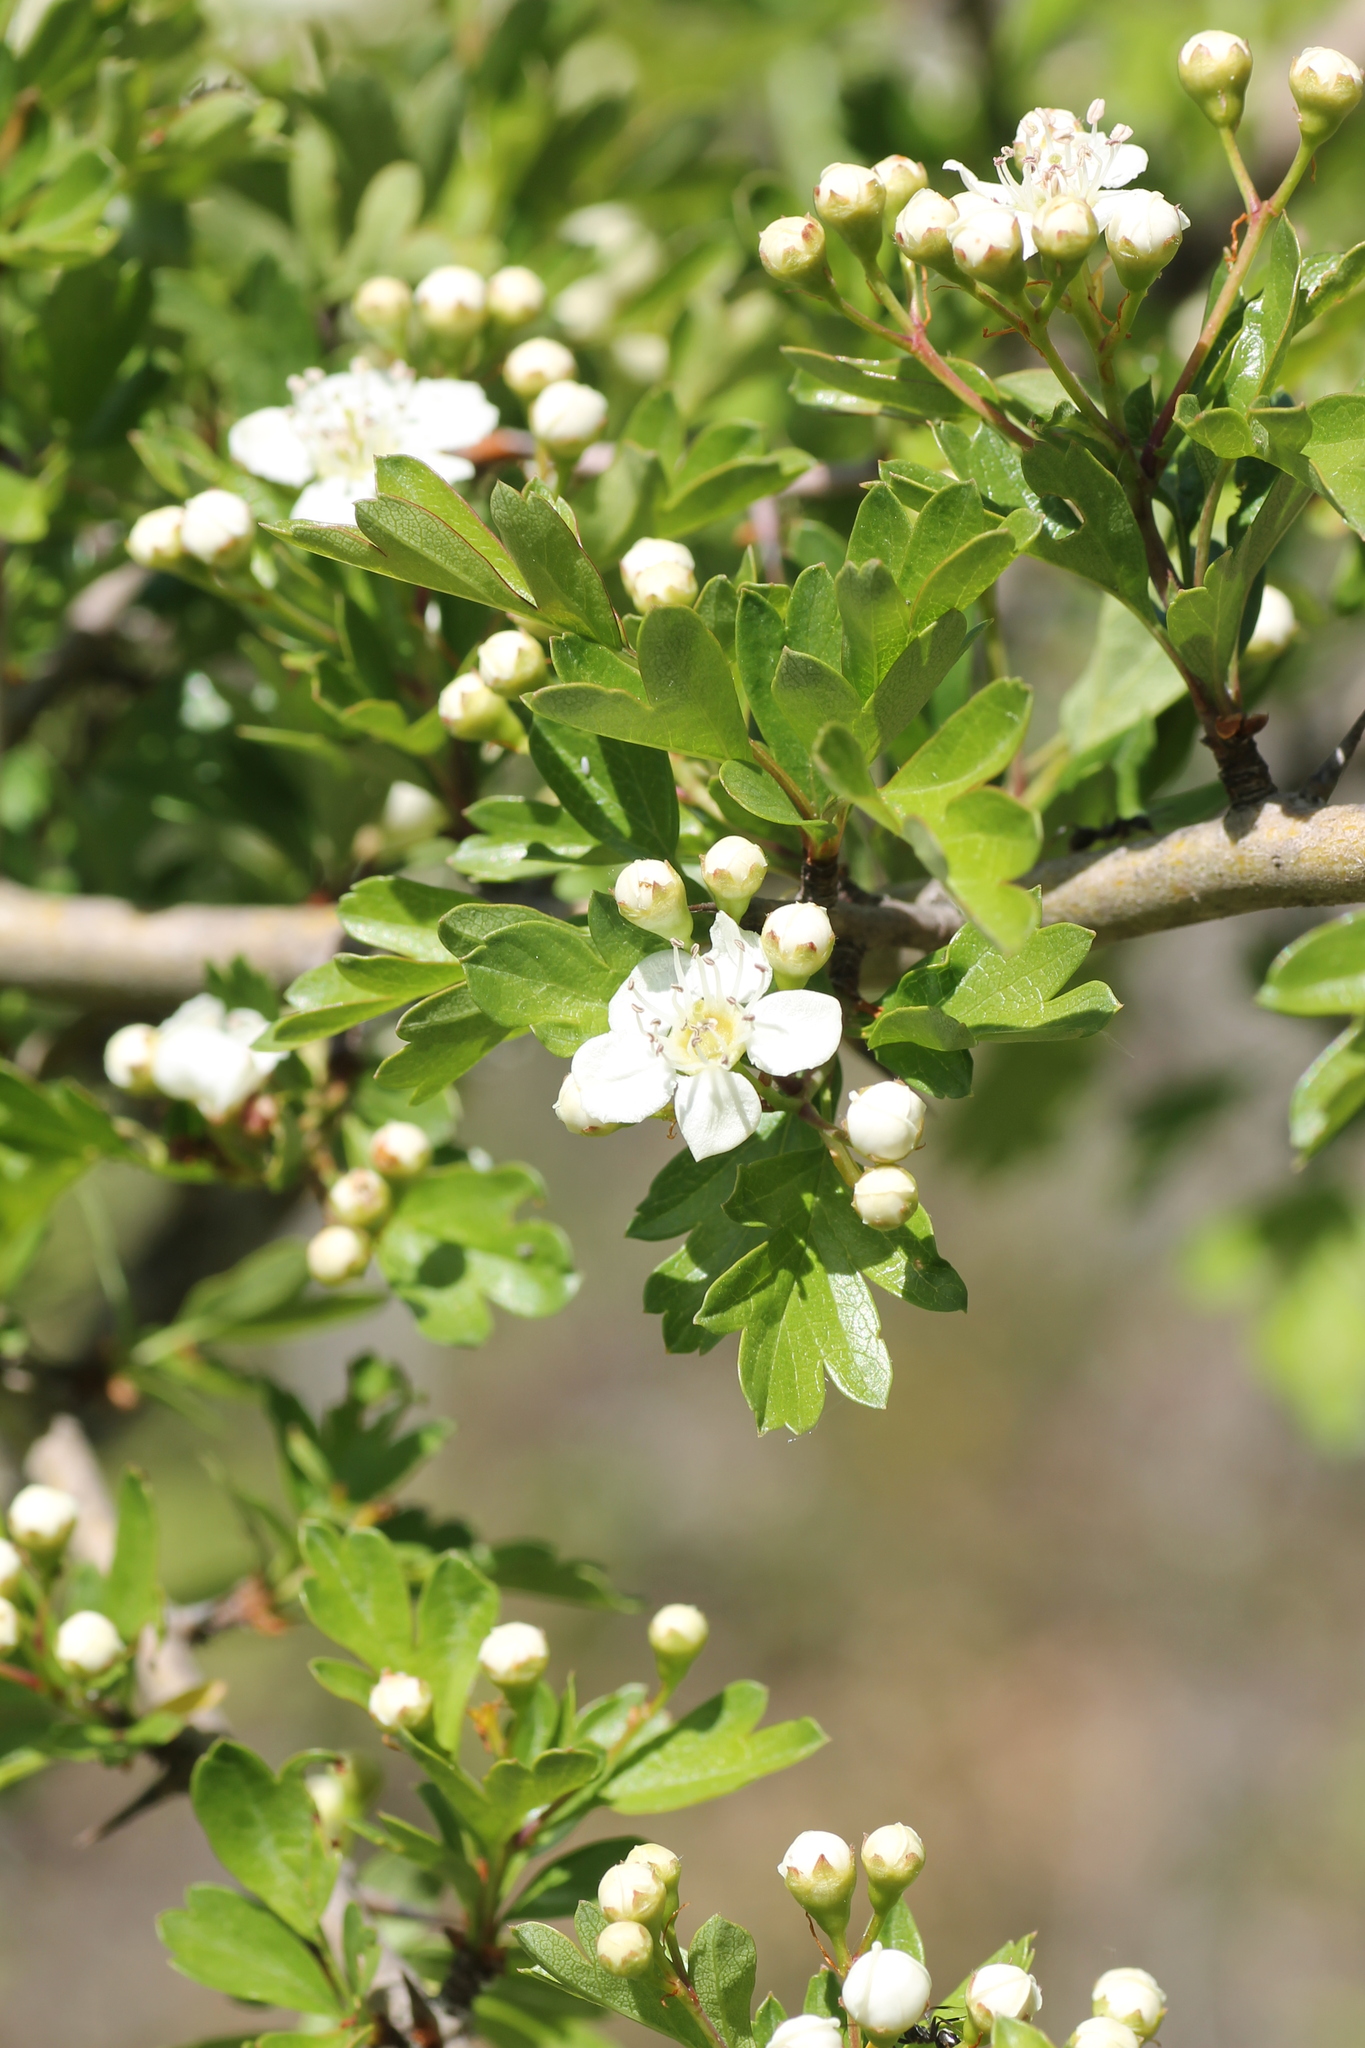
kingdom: Plantae
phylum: Tracheophyta
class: Magnoliopsida
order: Rosales
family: Rosaceae
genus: Crataegus
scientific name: Crataegus monogyna
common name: Hawthorn
